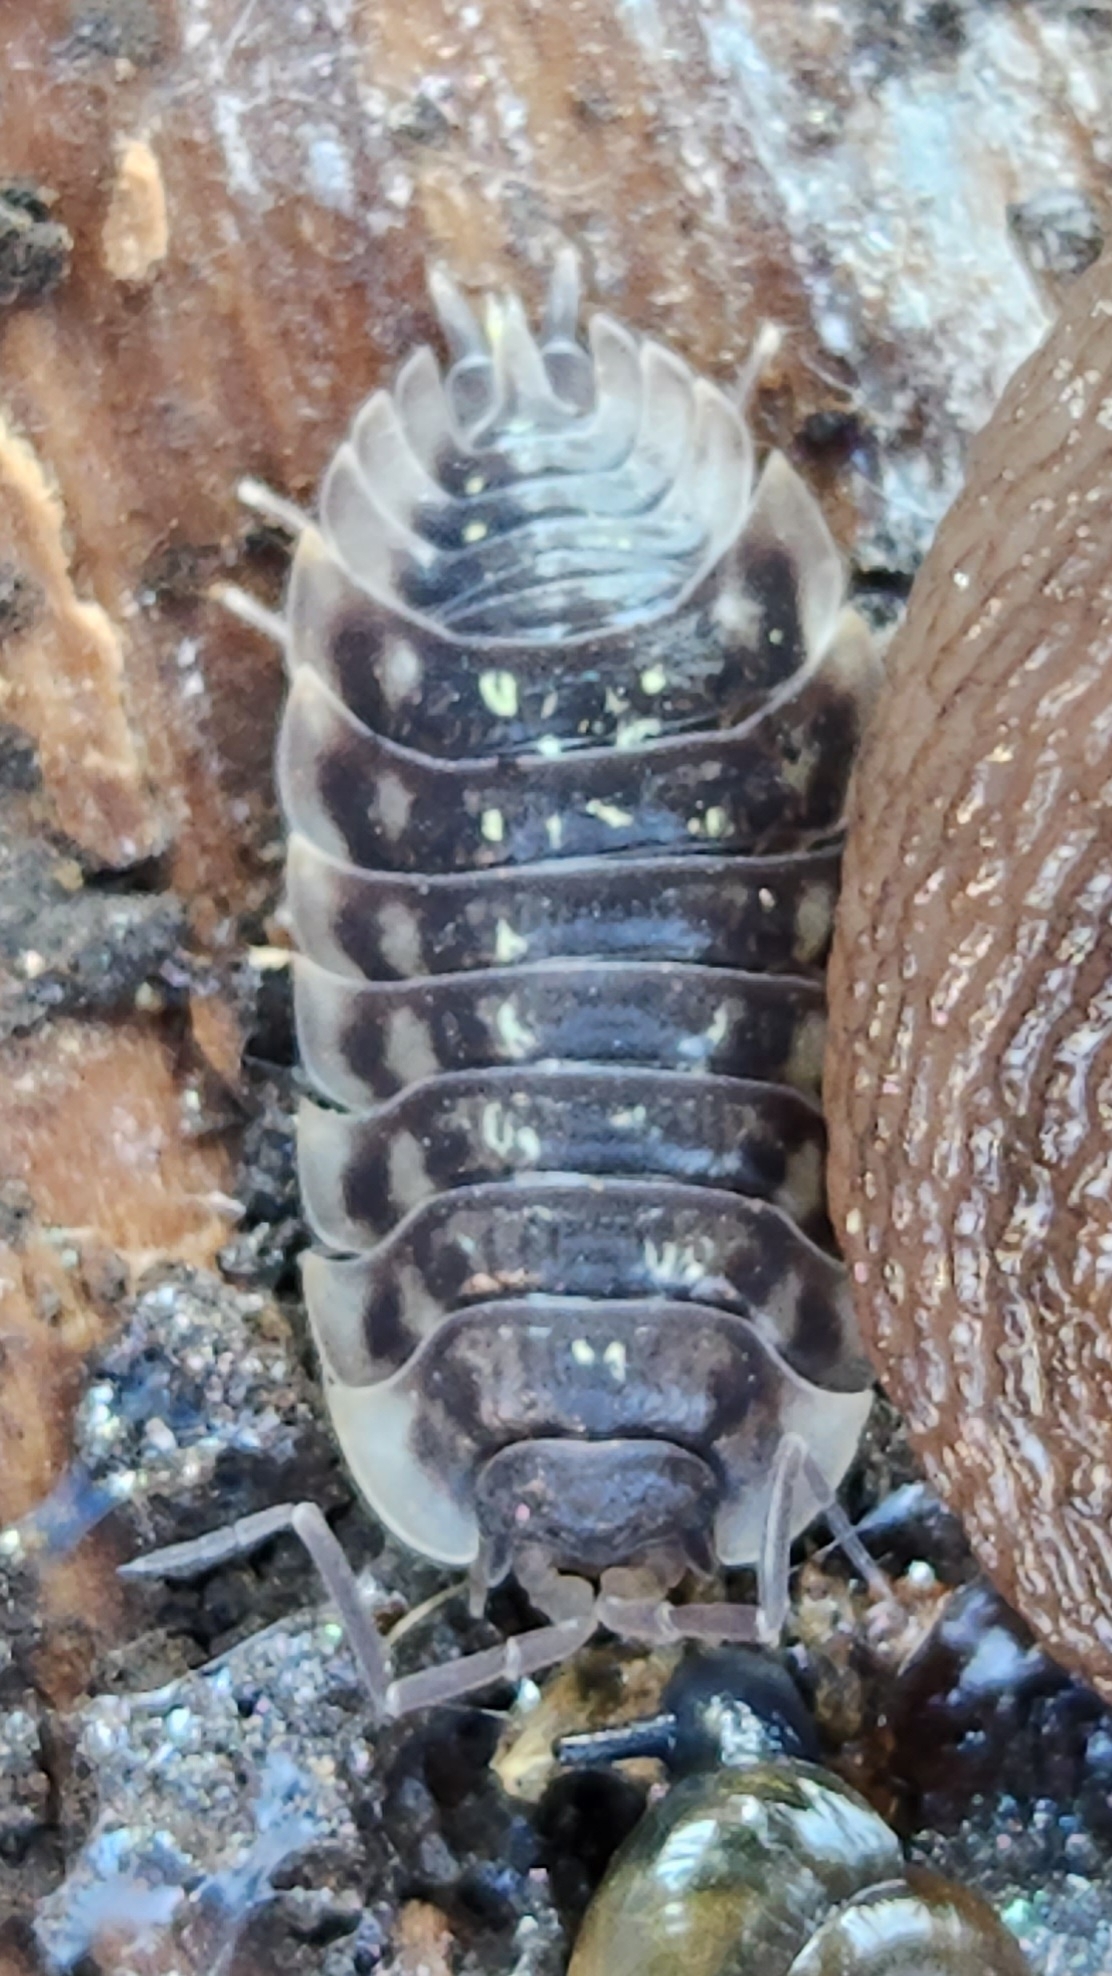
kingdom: Animalia
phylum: Arthropoda
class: Malacostraca
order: Isopoda
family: Oniscidae
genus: Oniscus
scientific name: Oniscus asellus
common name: Common shiny woodlouse
